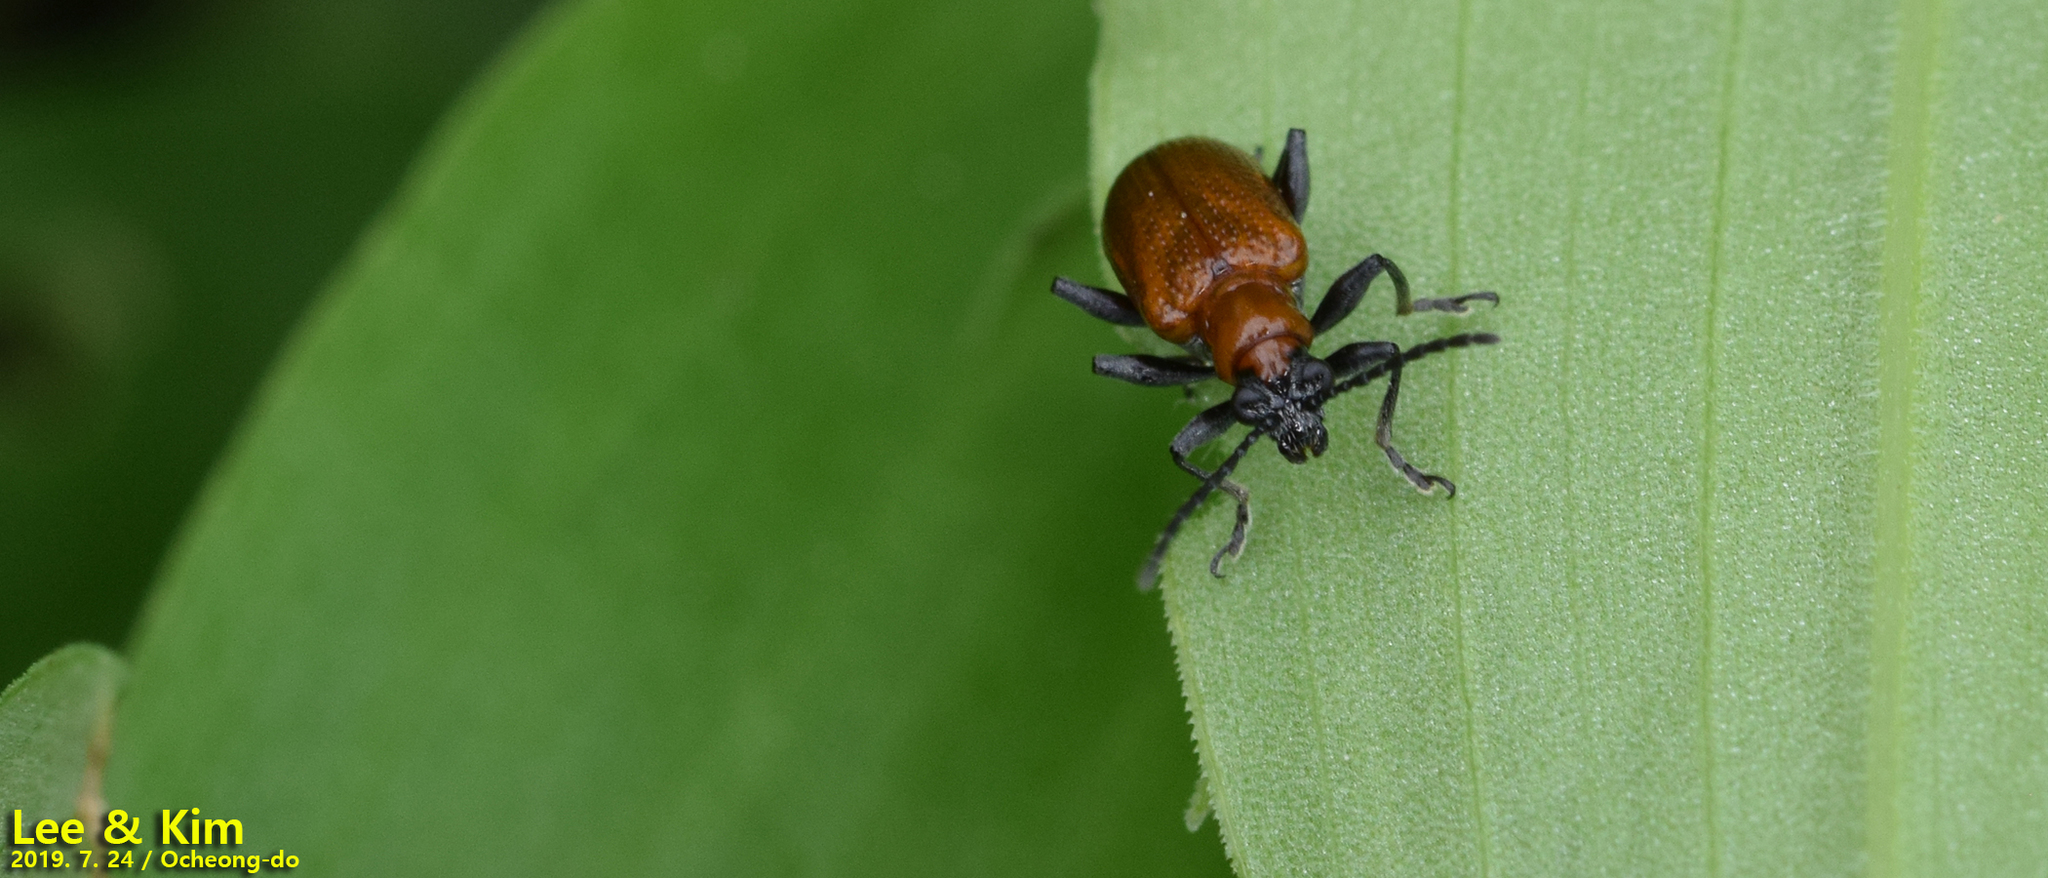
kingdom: Animalia
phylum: Arthropoda
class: Insecta
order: Coleoptera
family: Chrysomelidae
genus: Lema
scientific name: Lema diversa
